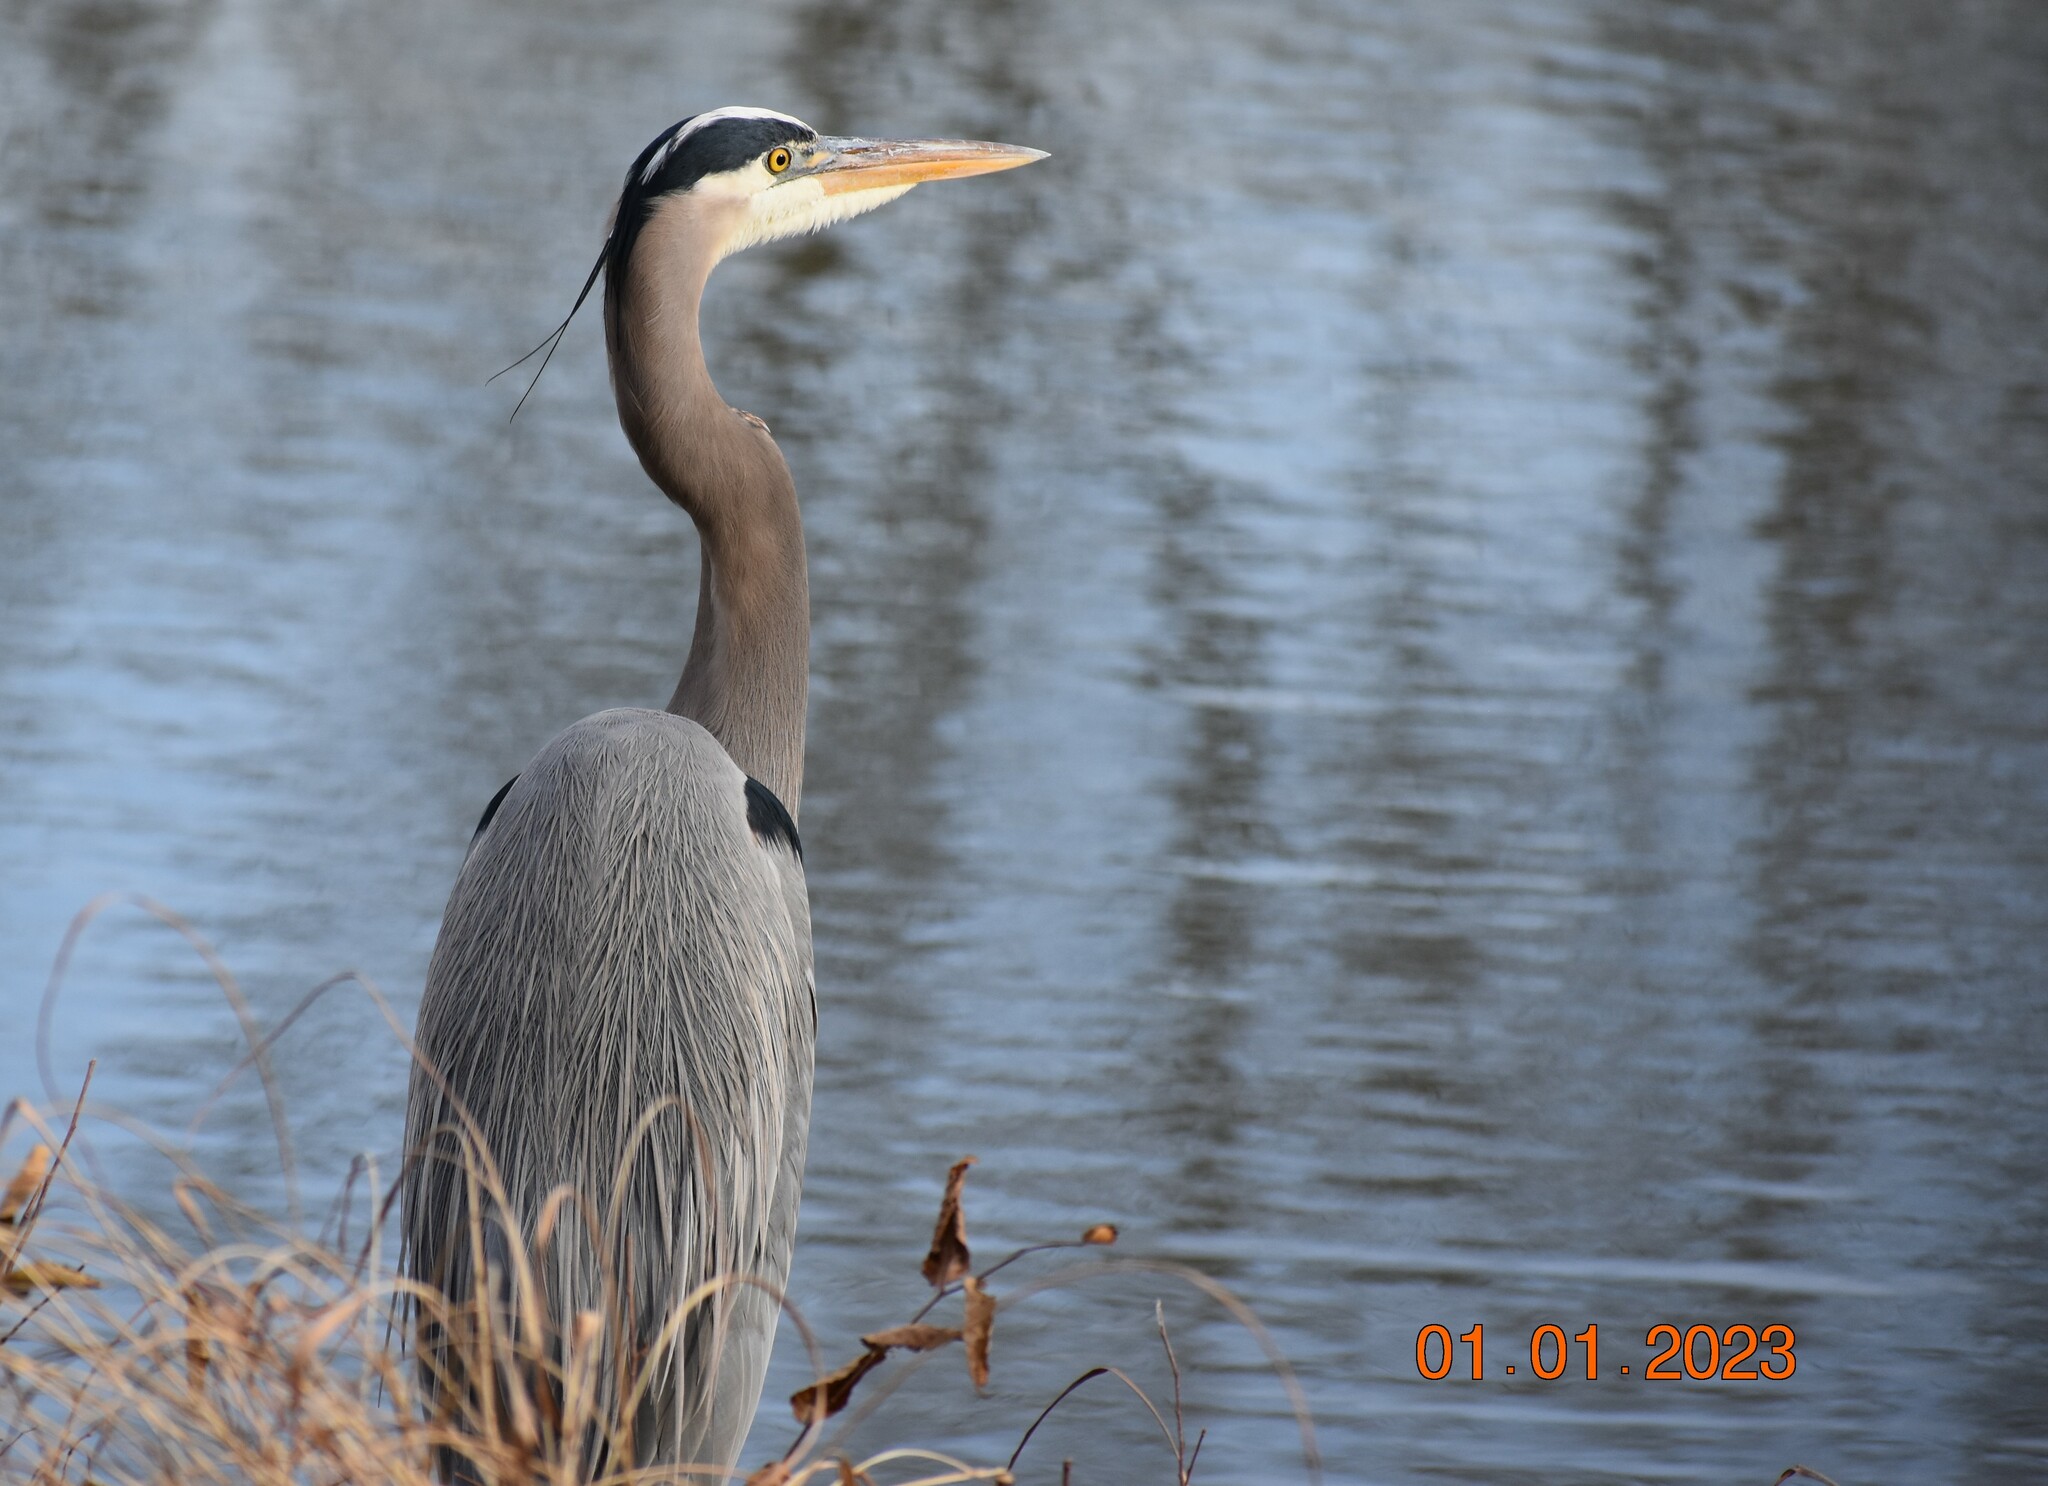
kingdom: Animalia
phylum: Chordata
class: Aves
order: Pelecaniformes
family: Ardeidae
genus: Ardea
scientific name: Ardea herodias
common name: Great blue heron
